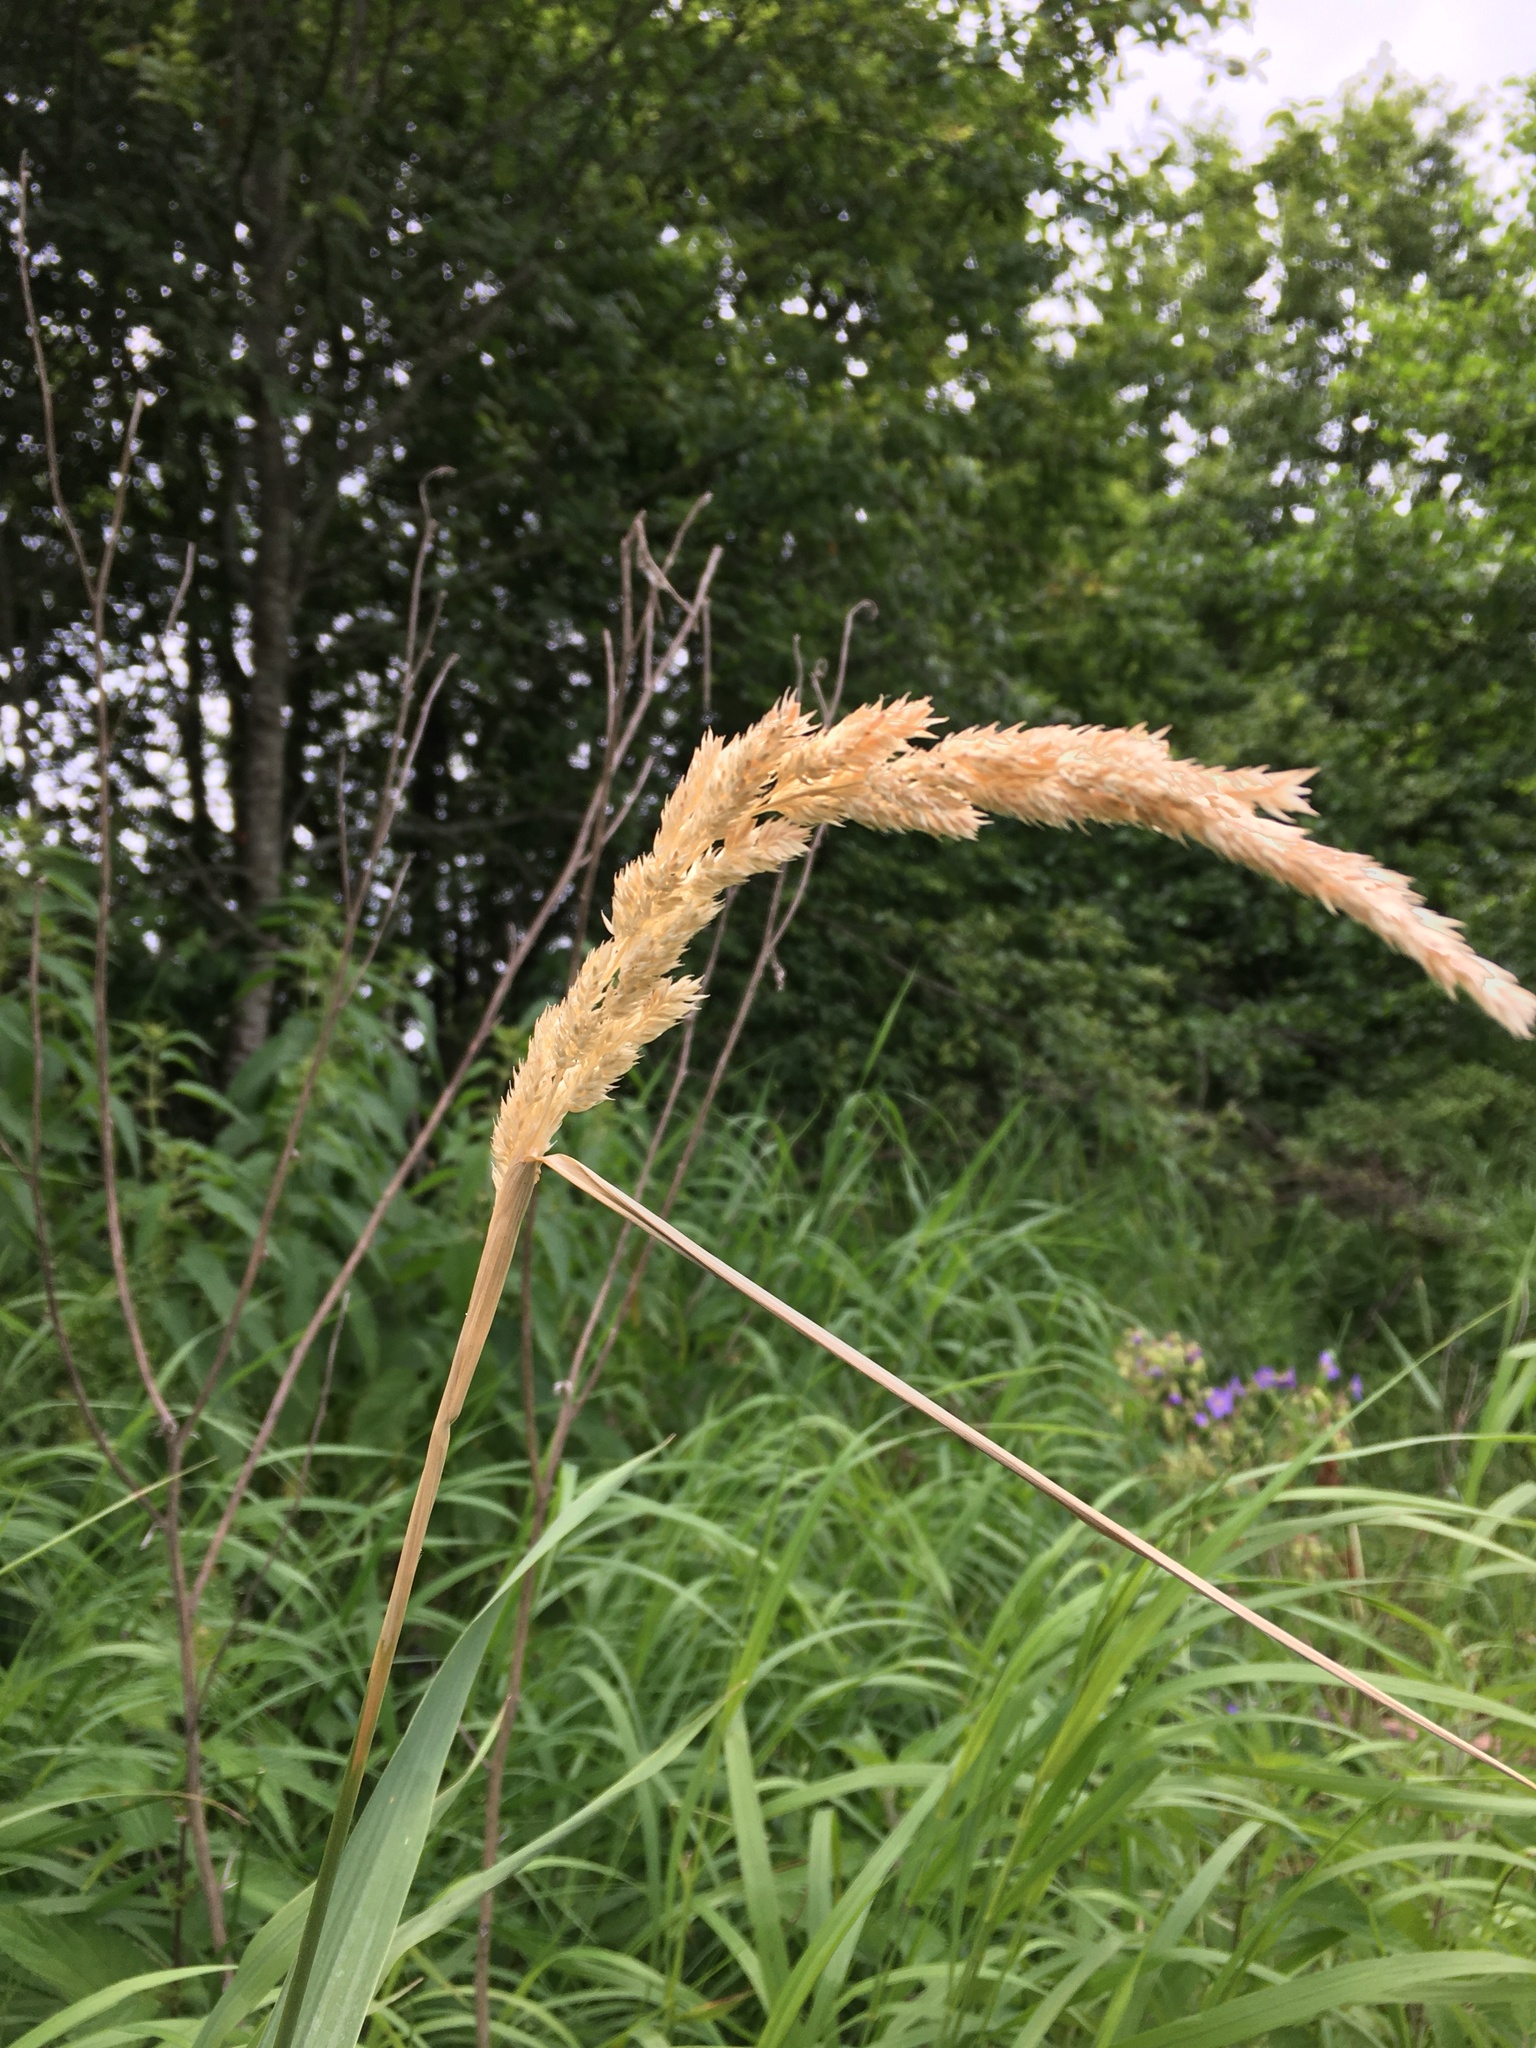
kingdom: Plantae
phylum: Tracheophyta
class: Liliopsida
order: Poales
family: Poaceae
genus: Phalaris
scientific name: Phalaris arundinacea
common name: Reed canary-grass
